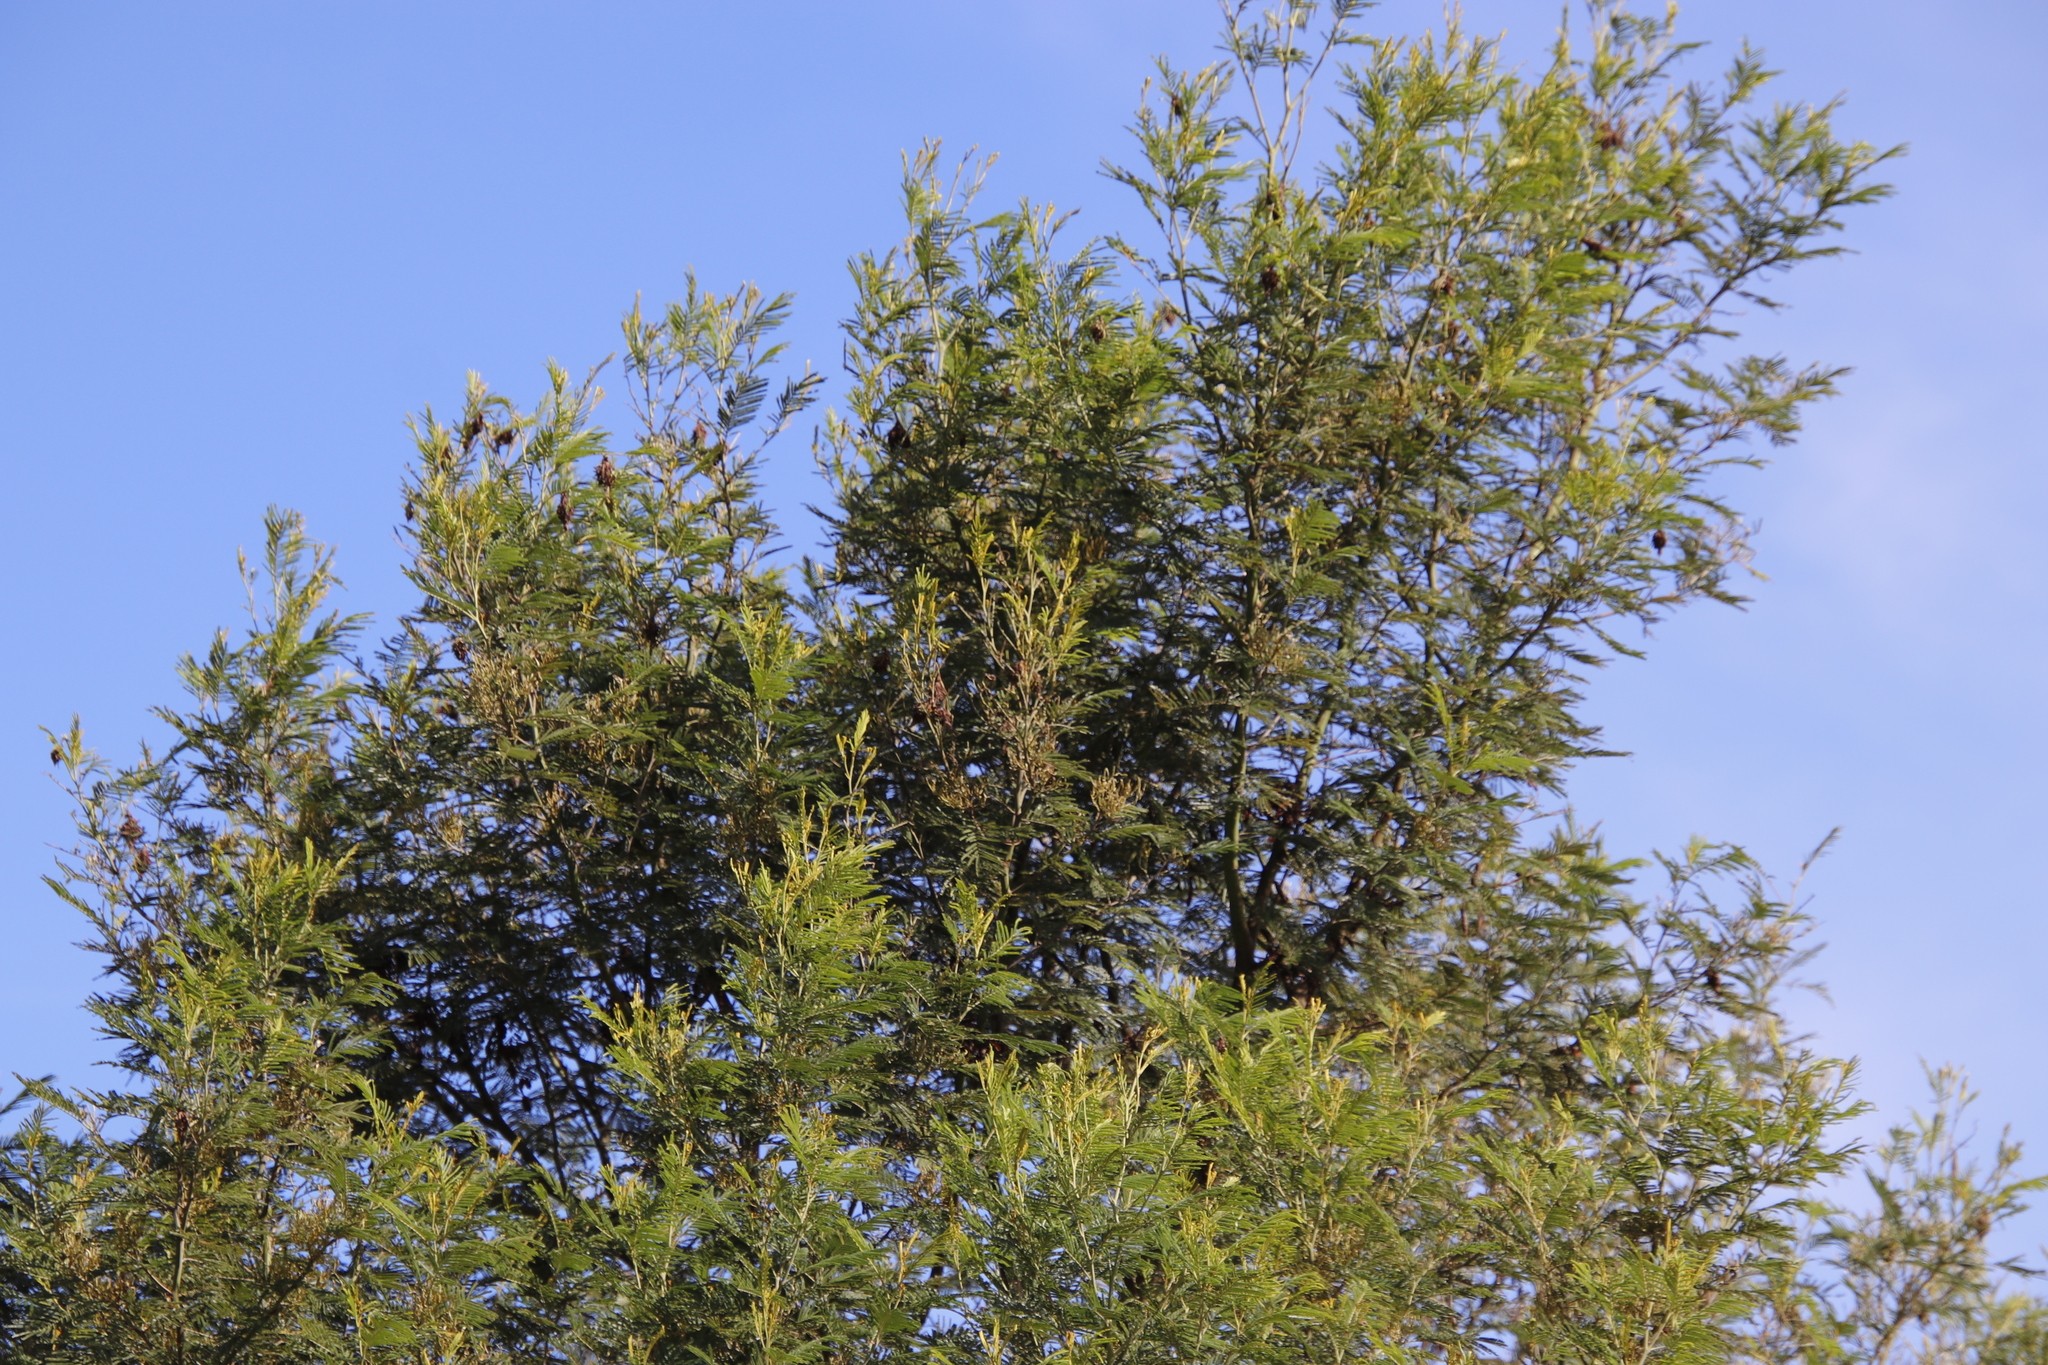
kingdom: Plantae
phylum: Tracheophyta
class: Magnoliopsida
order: Fabales
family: Fabaceae
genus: Acacia
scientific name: Acacia mearnsii
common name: Black wattle
